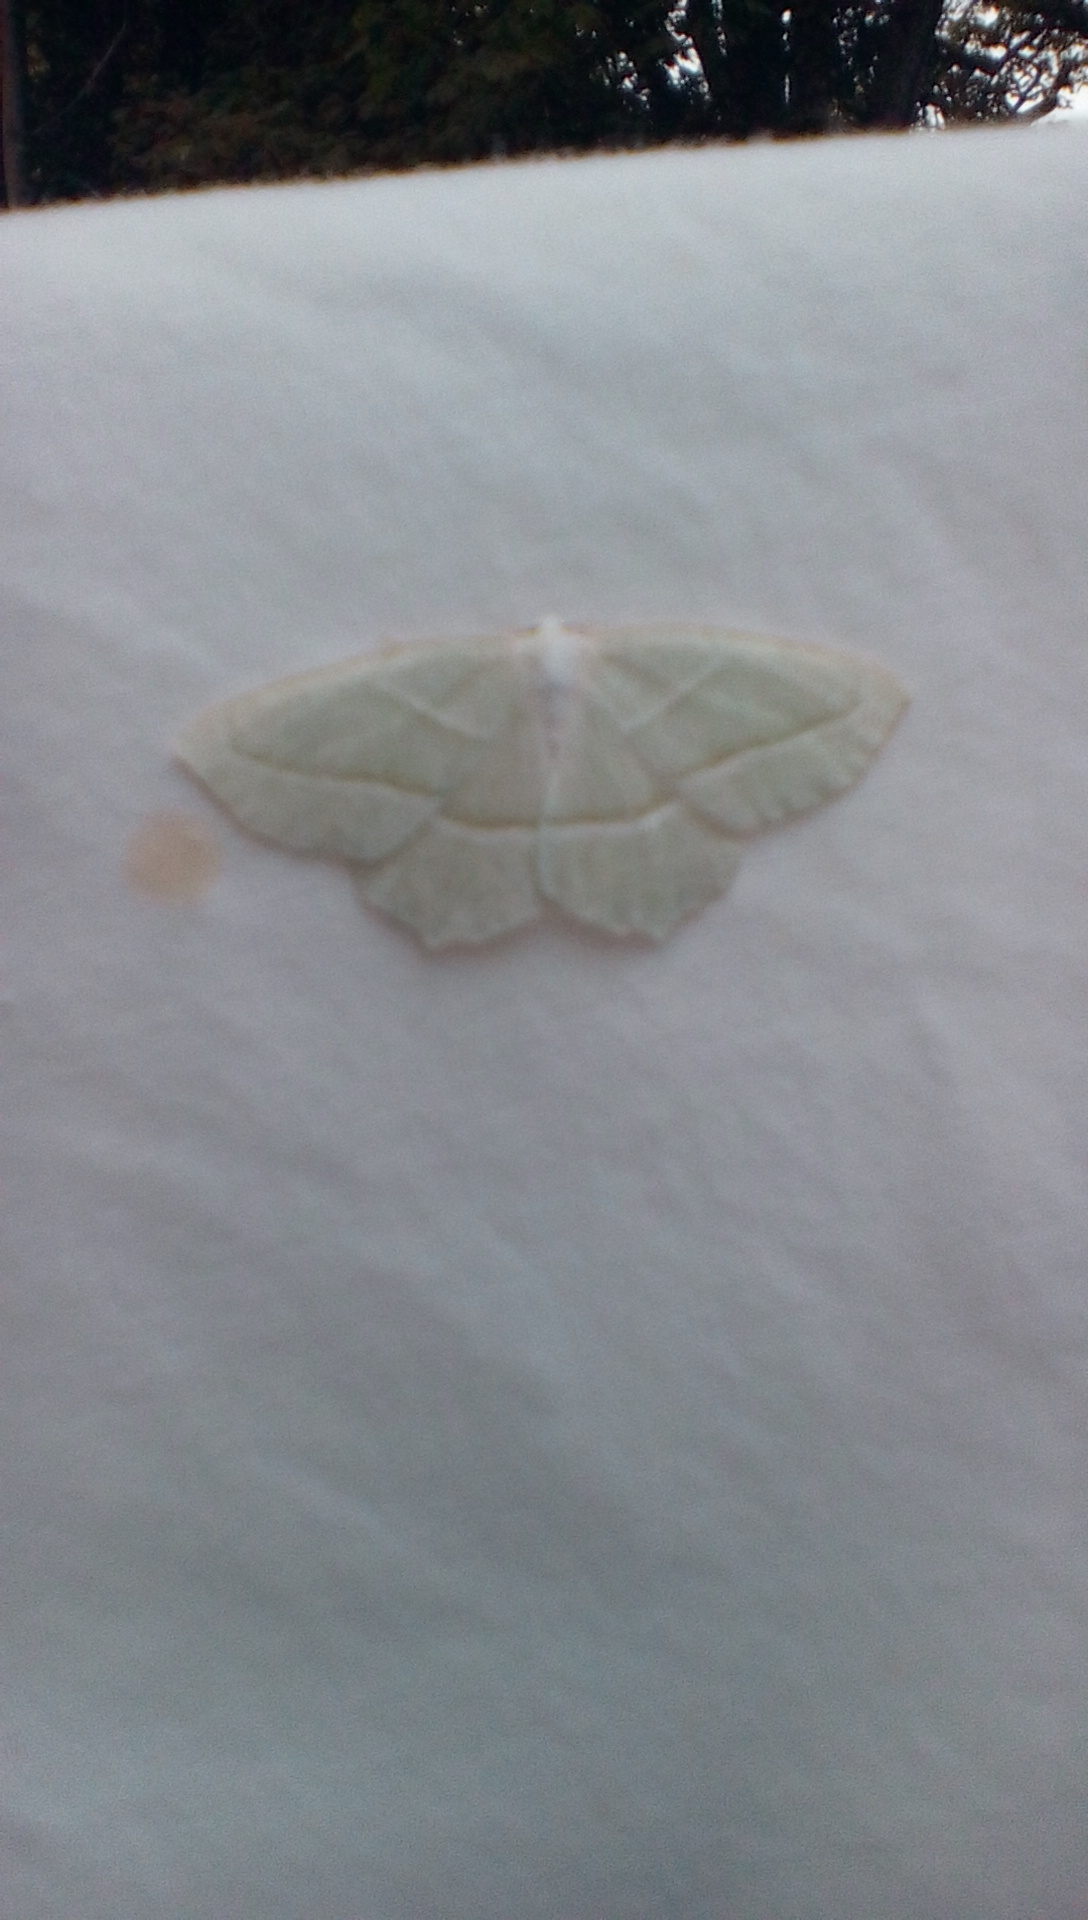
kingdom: Animalia
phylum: Arthropoda
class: Insecta
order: Lepidoptera
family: Geometridae
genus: Campaea
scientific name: Campaea perlata
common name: Fringed looper
